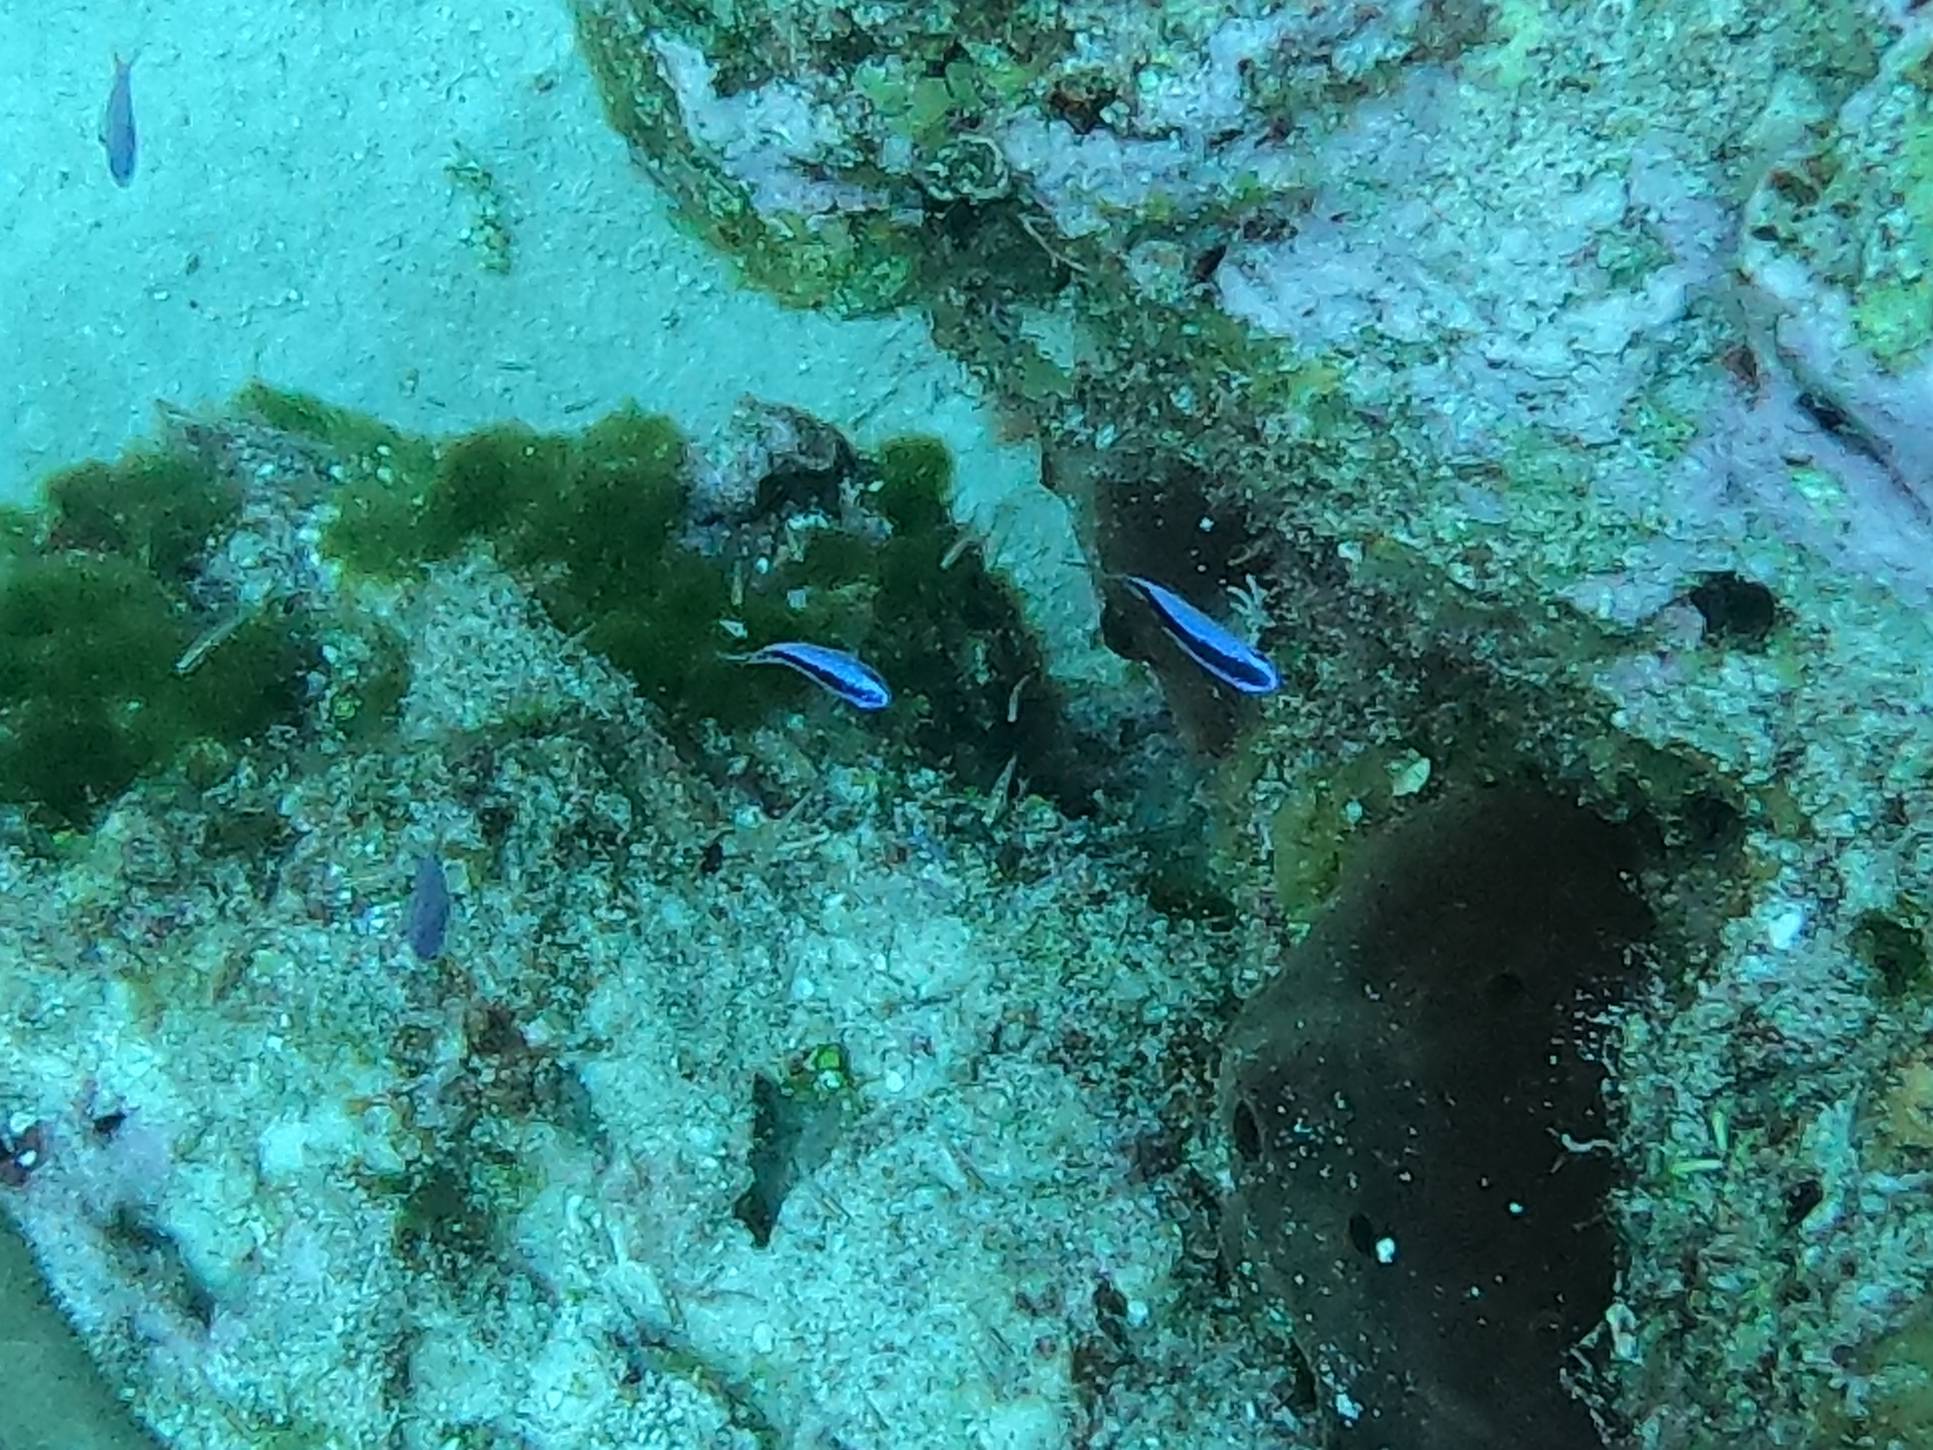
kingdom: Animalia
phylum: Chordata
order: Perciformes
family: Pomacentridae
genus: Chromis
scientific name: Chromis cyanea
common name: Blue chromis
